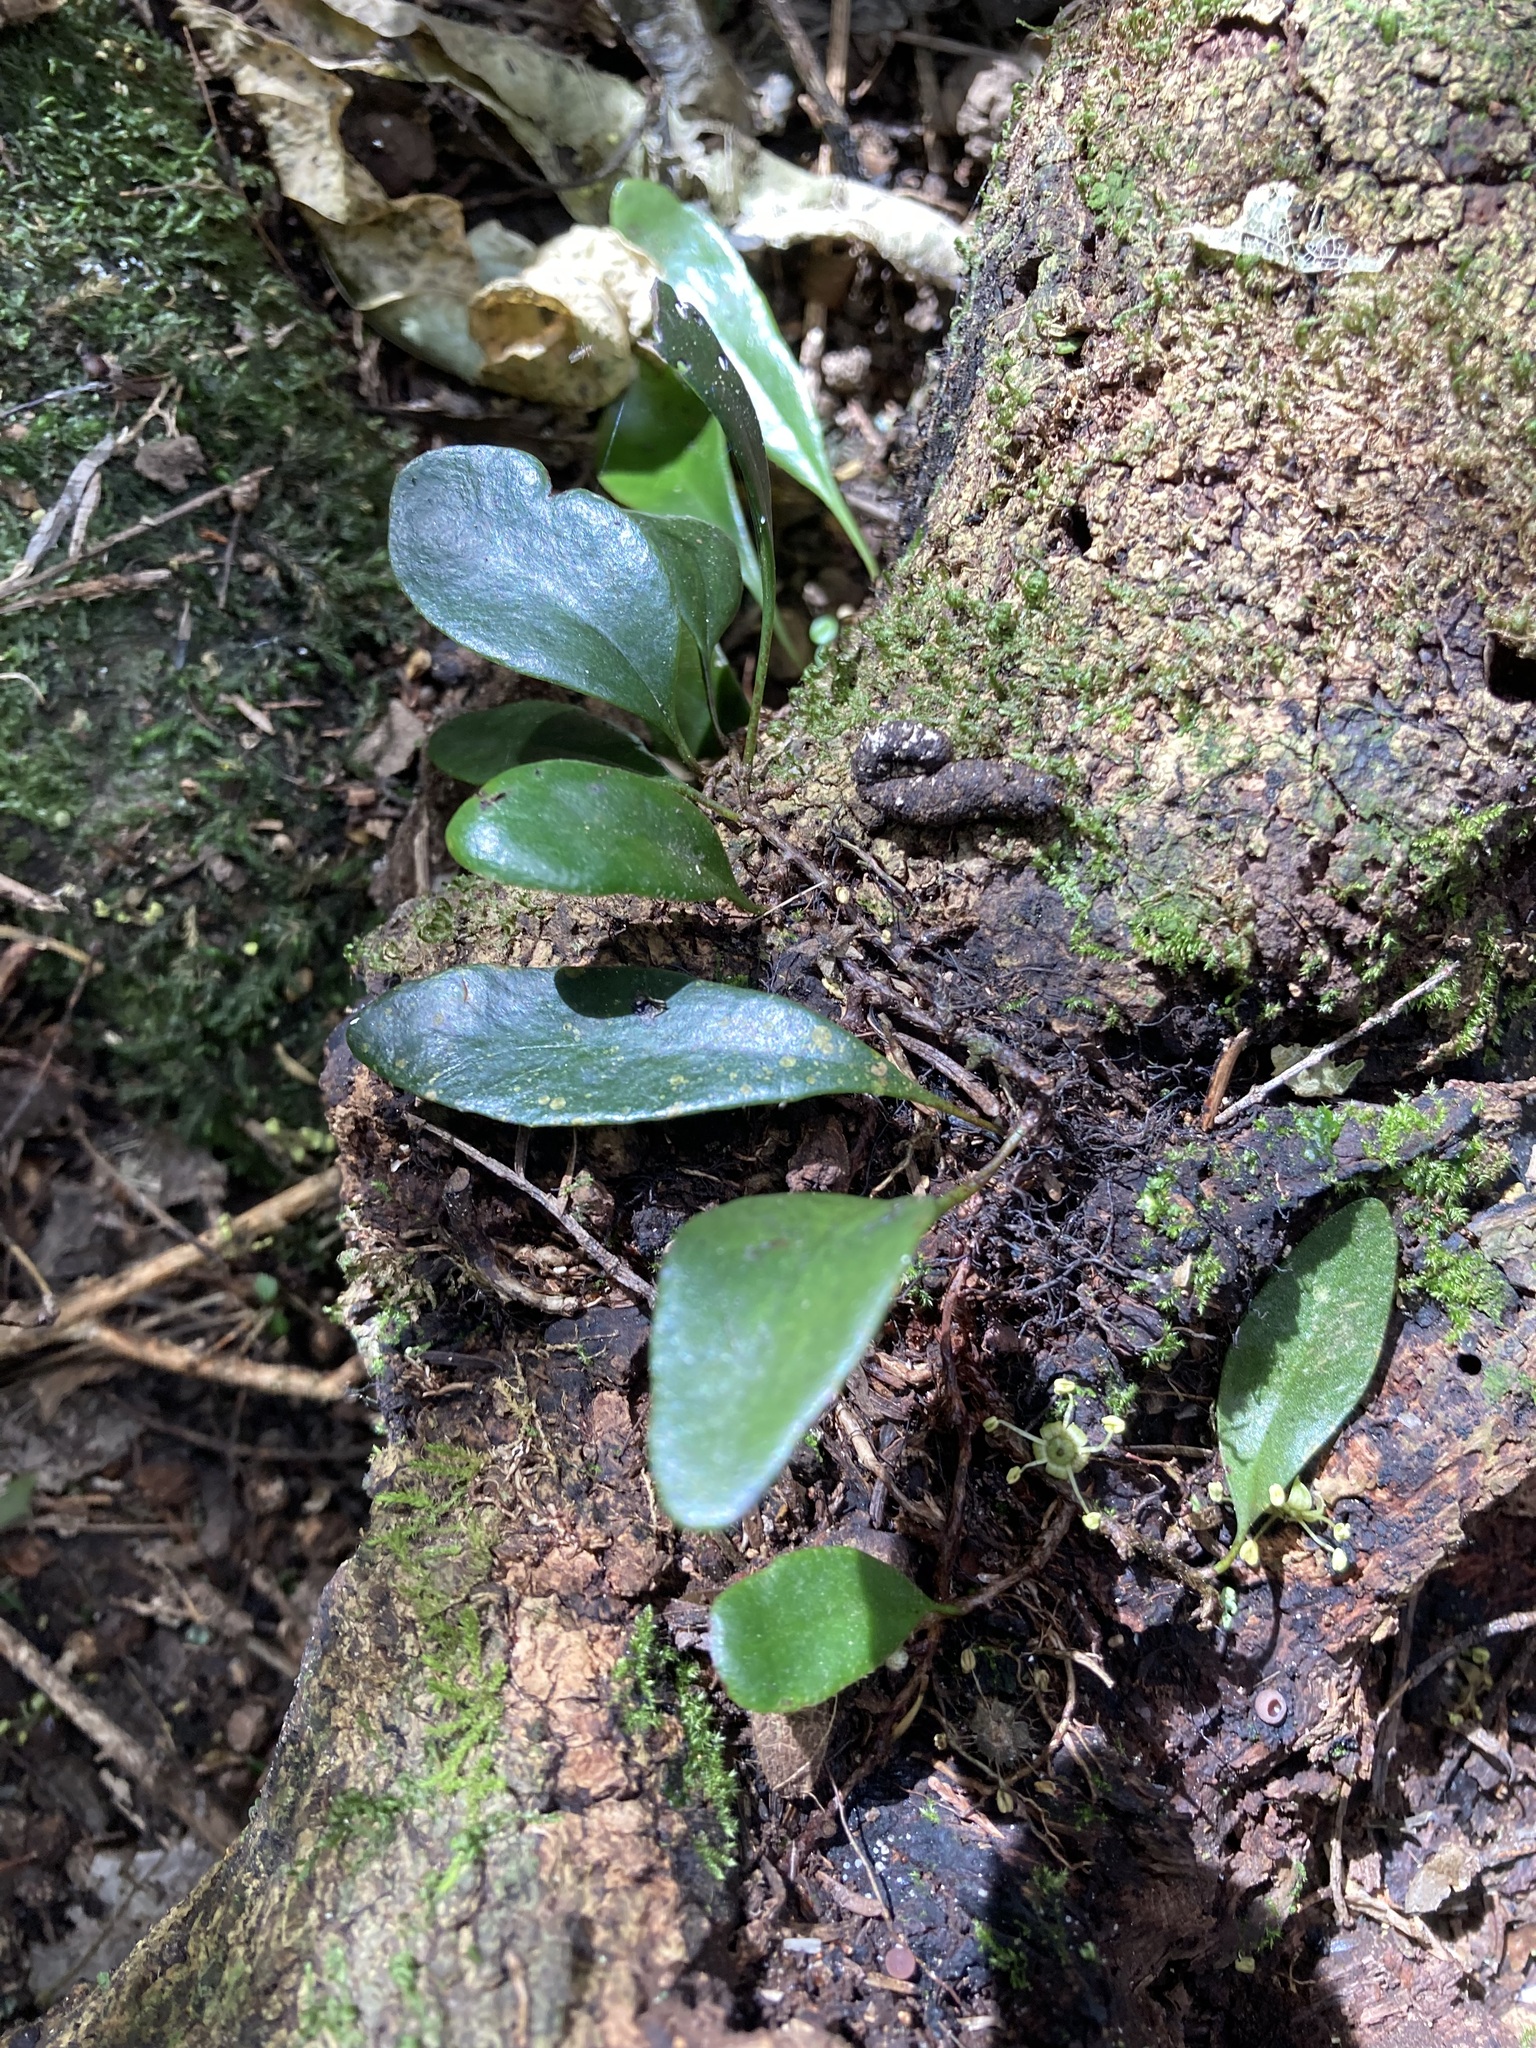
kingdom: Plantae
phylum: Tracheophyta
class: Polypodiopsida
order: Polypodiales
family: Polypodiaceae
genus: Pyrrosia
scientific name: Pyrrosia eleagnifolia
